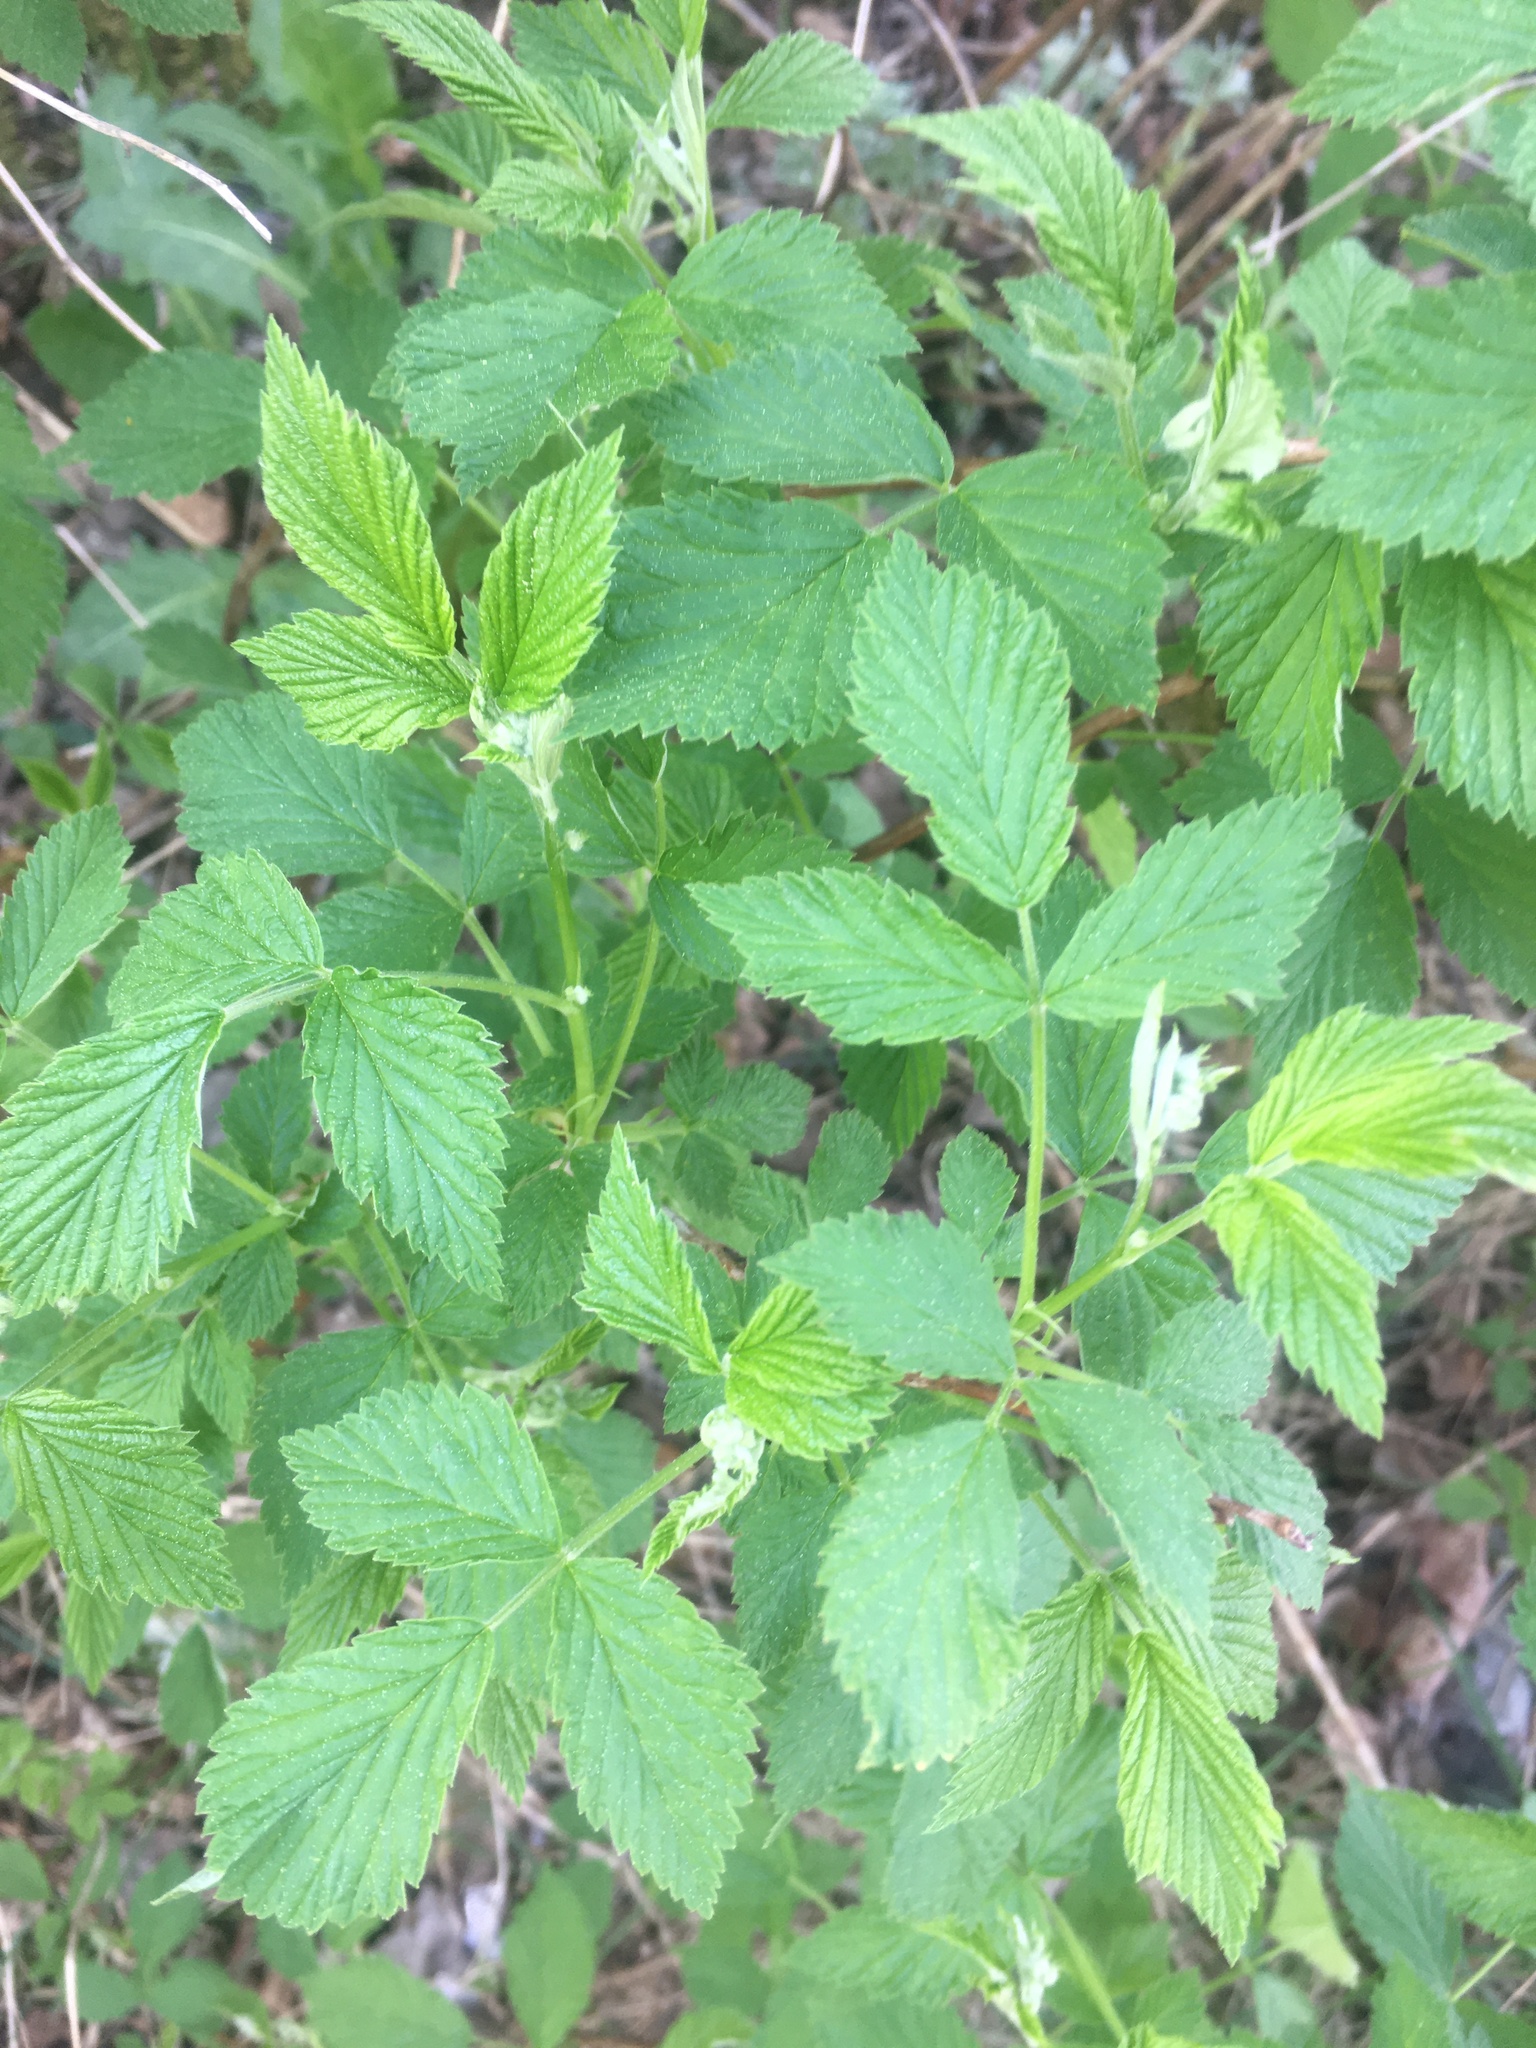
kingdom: Plantae
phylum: Tracheophyta
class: Magnoliopsida
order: Rosales
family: Rosaceae
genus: Rubus
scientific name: Rubus idaeus
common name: Raspberry
